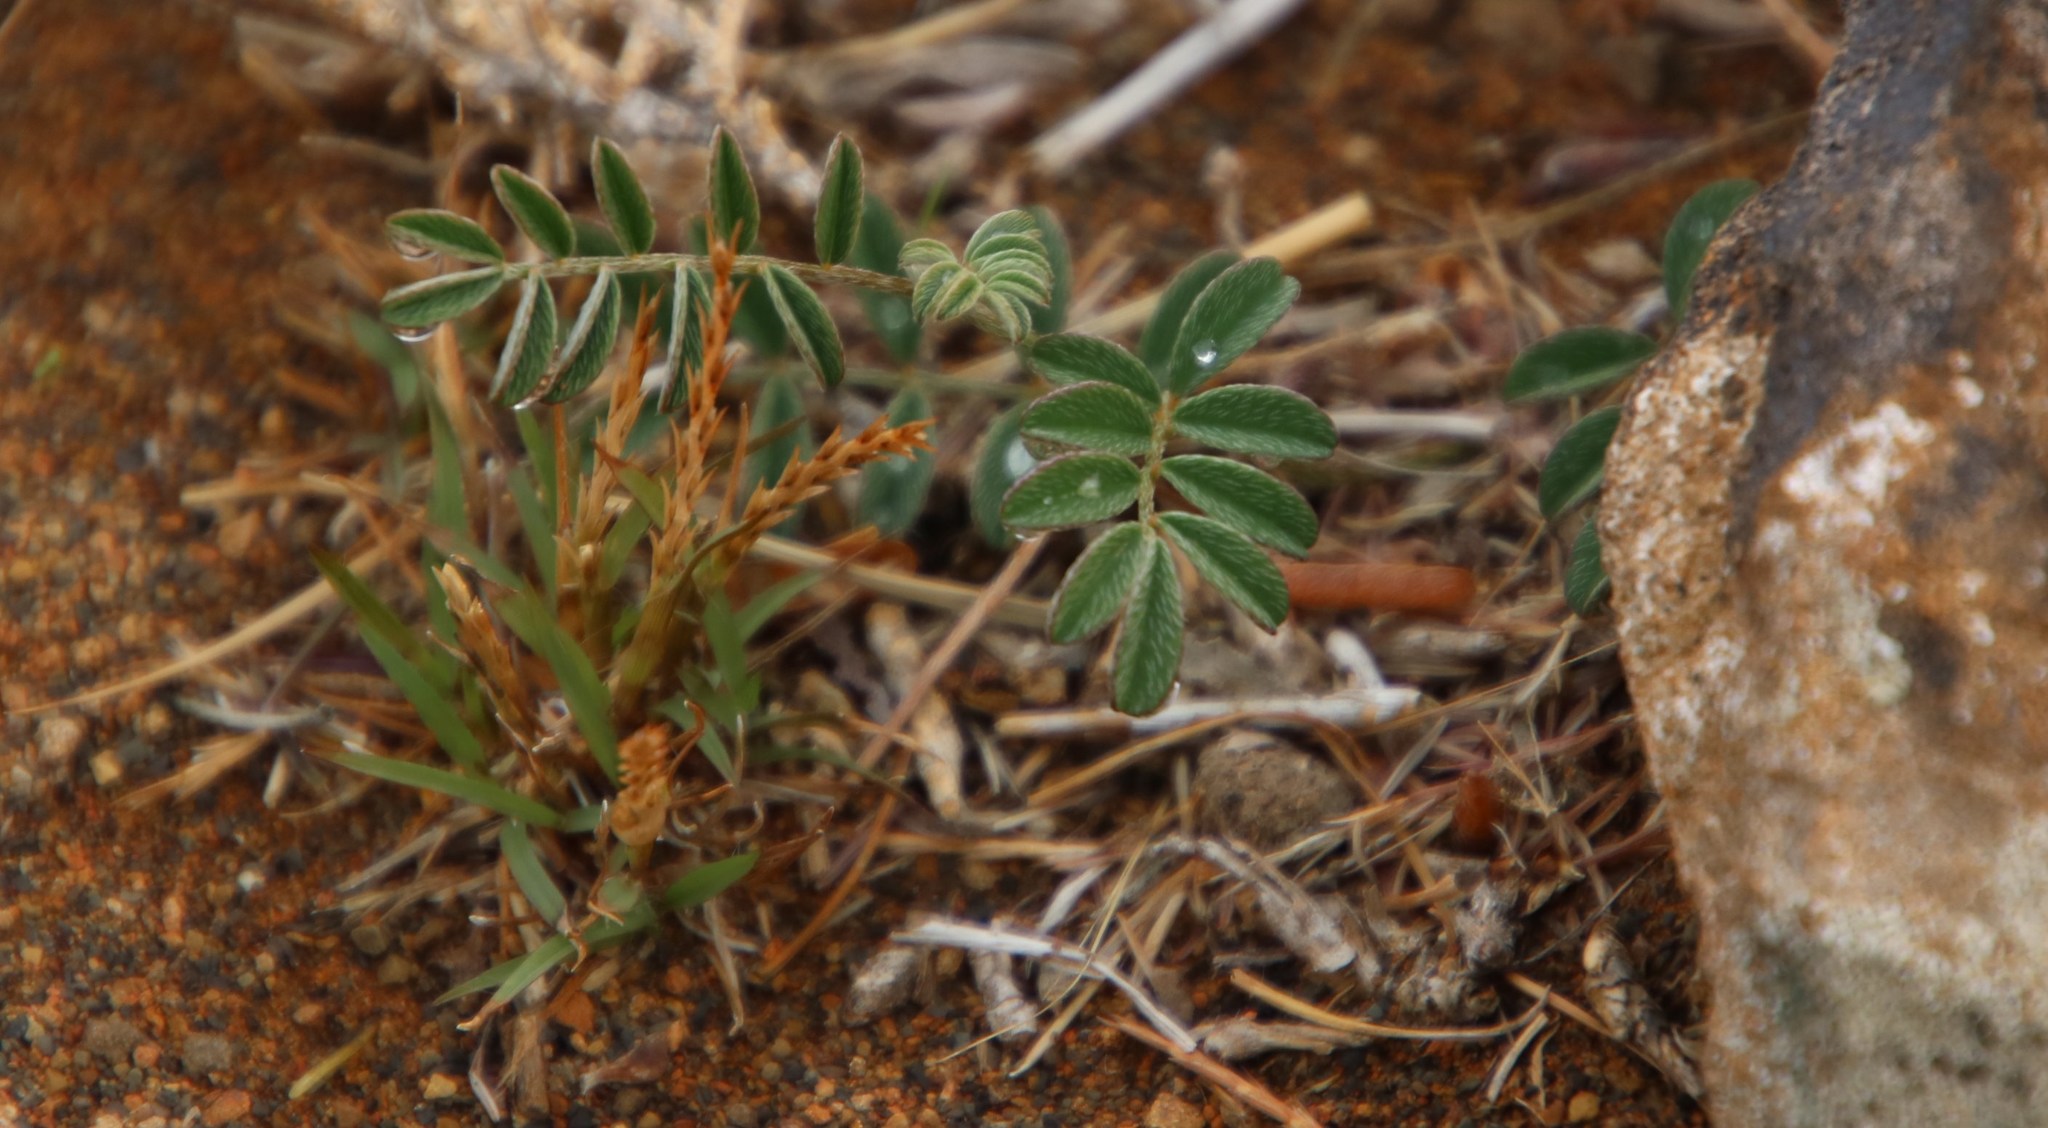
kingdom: Plantae
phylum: Tracheophyta
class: Magnoliopsida
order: Fabales
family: Fabaceae
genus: Indigofera
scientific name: Indigofera alternans
